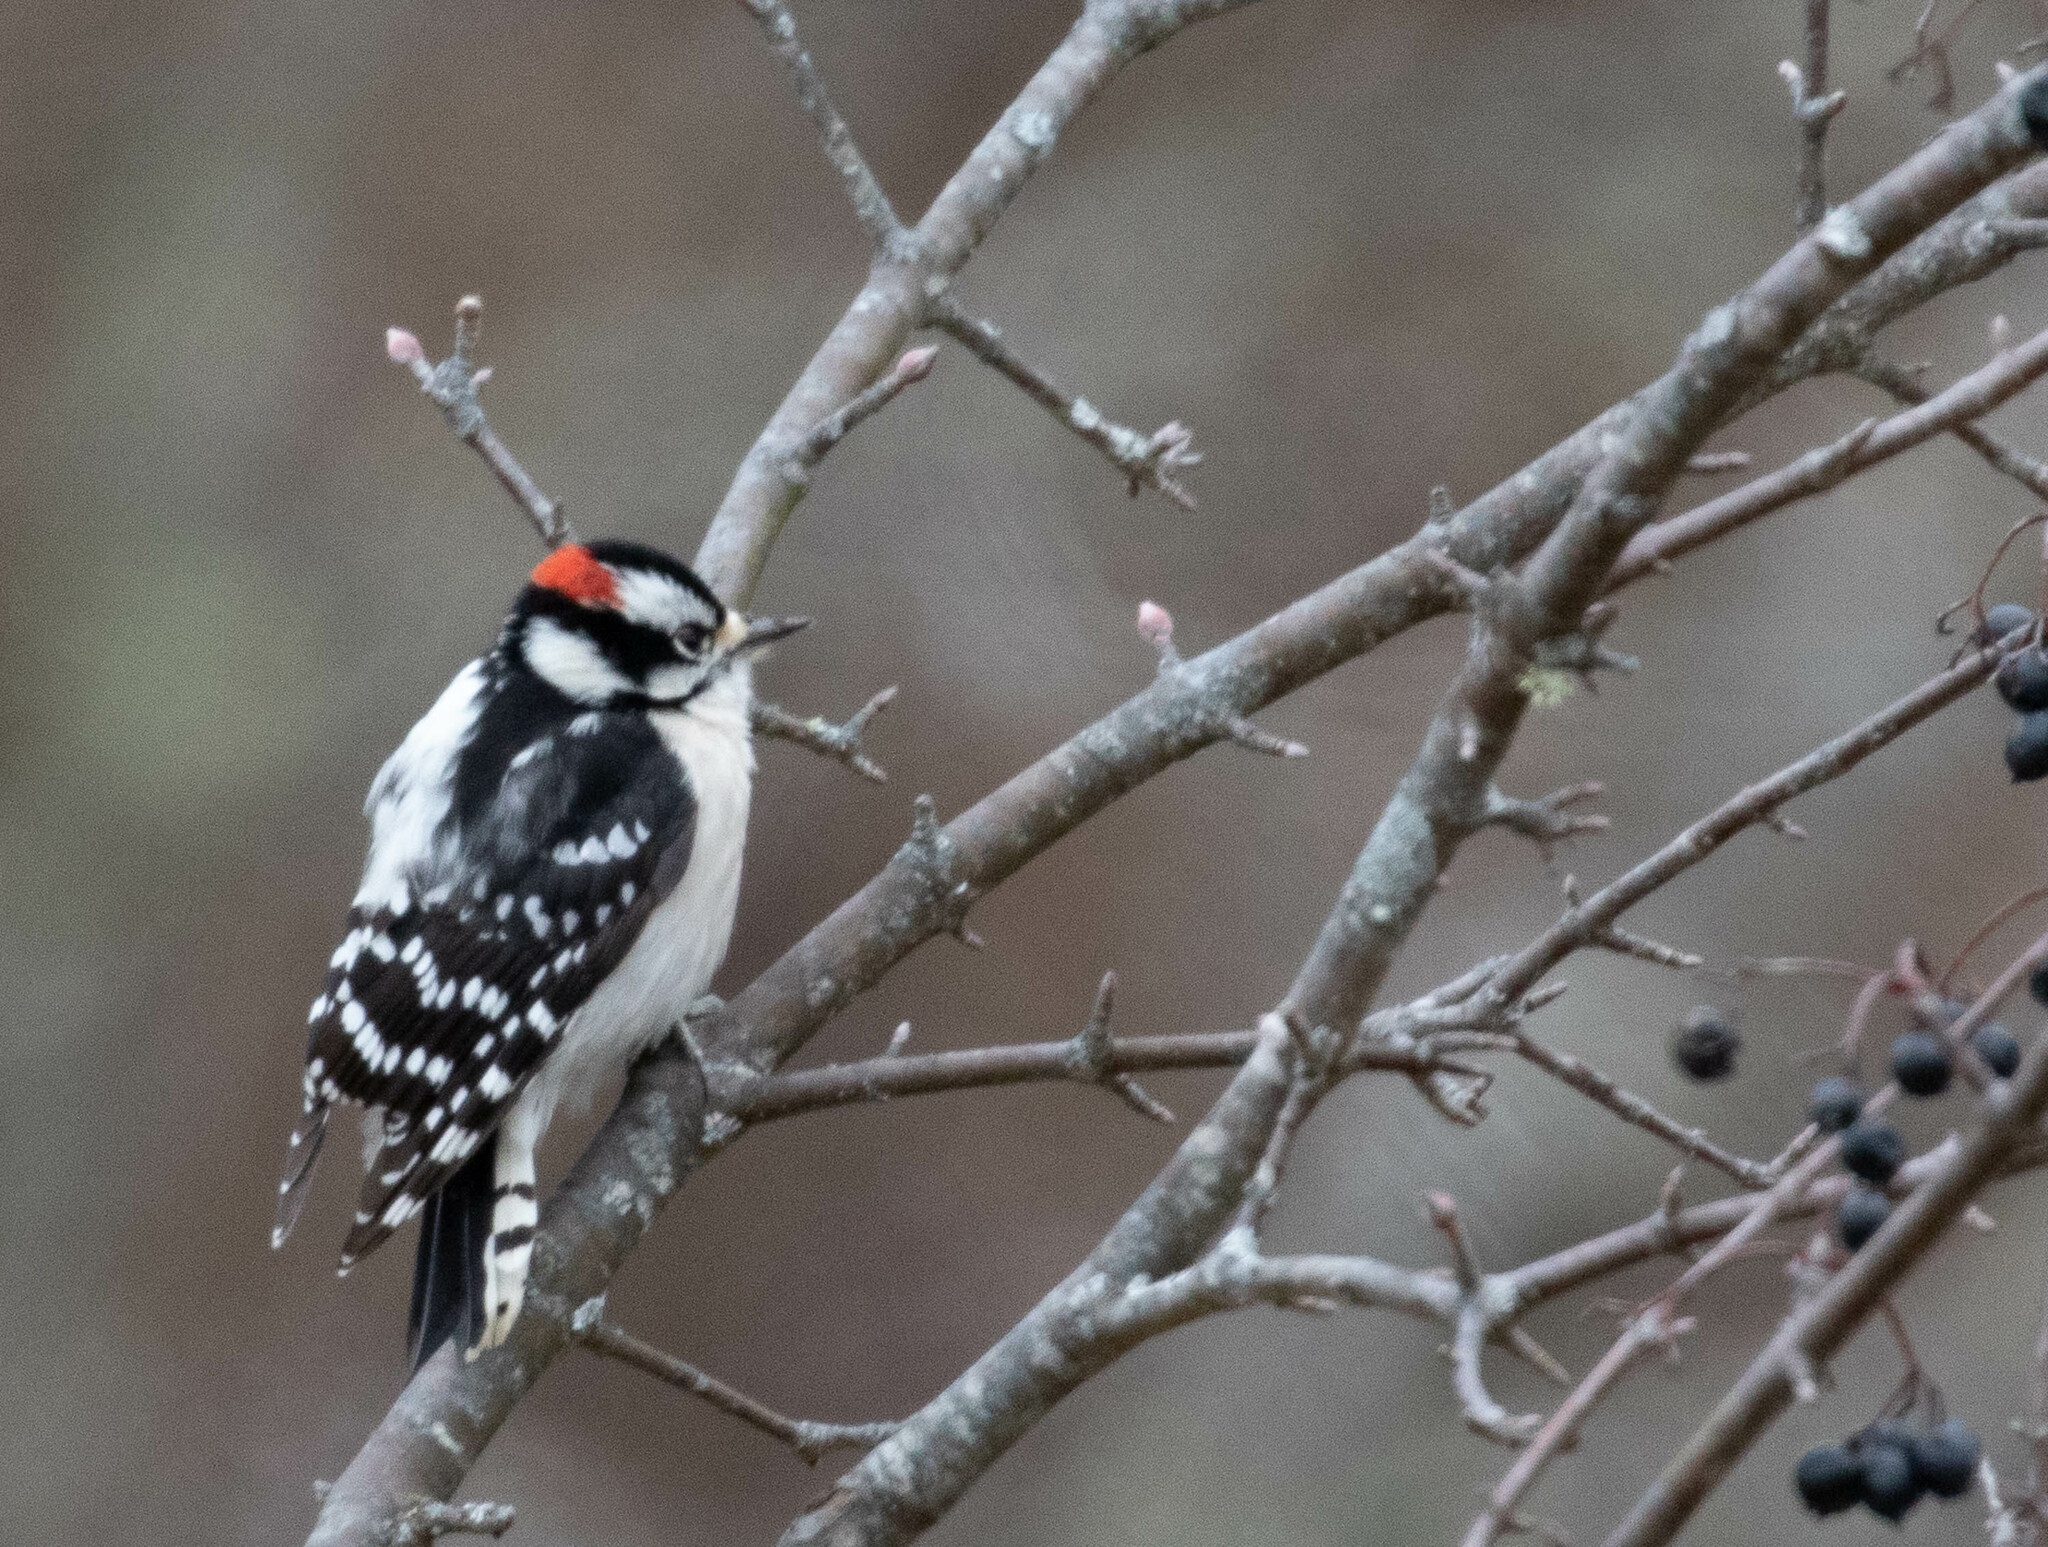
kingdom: Animalia
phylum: Chordata
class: Aves
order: Piciformes
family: Picidae
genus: Dryobates
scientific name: Dryobates pubescens
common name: Downy woodpecker
